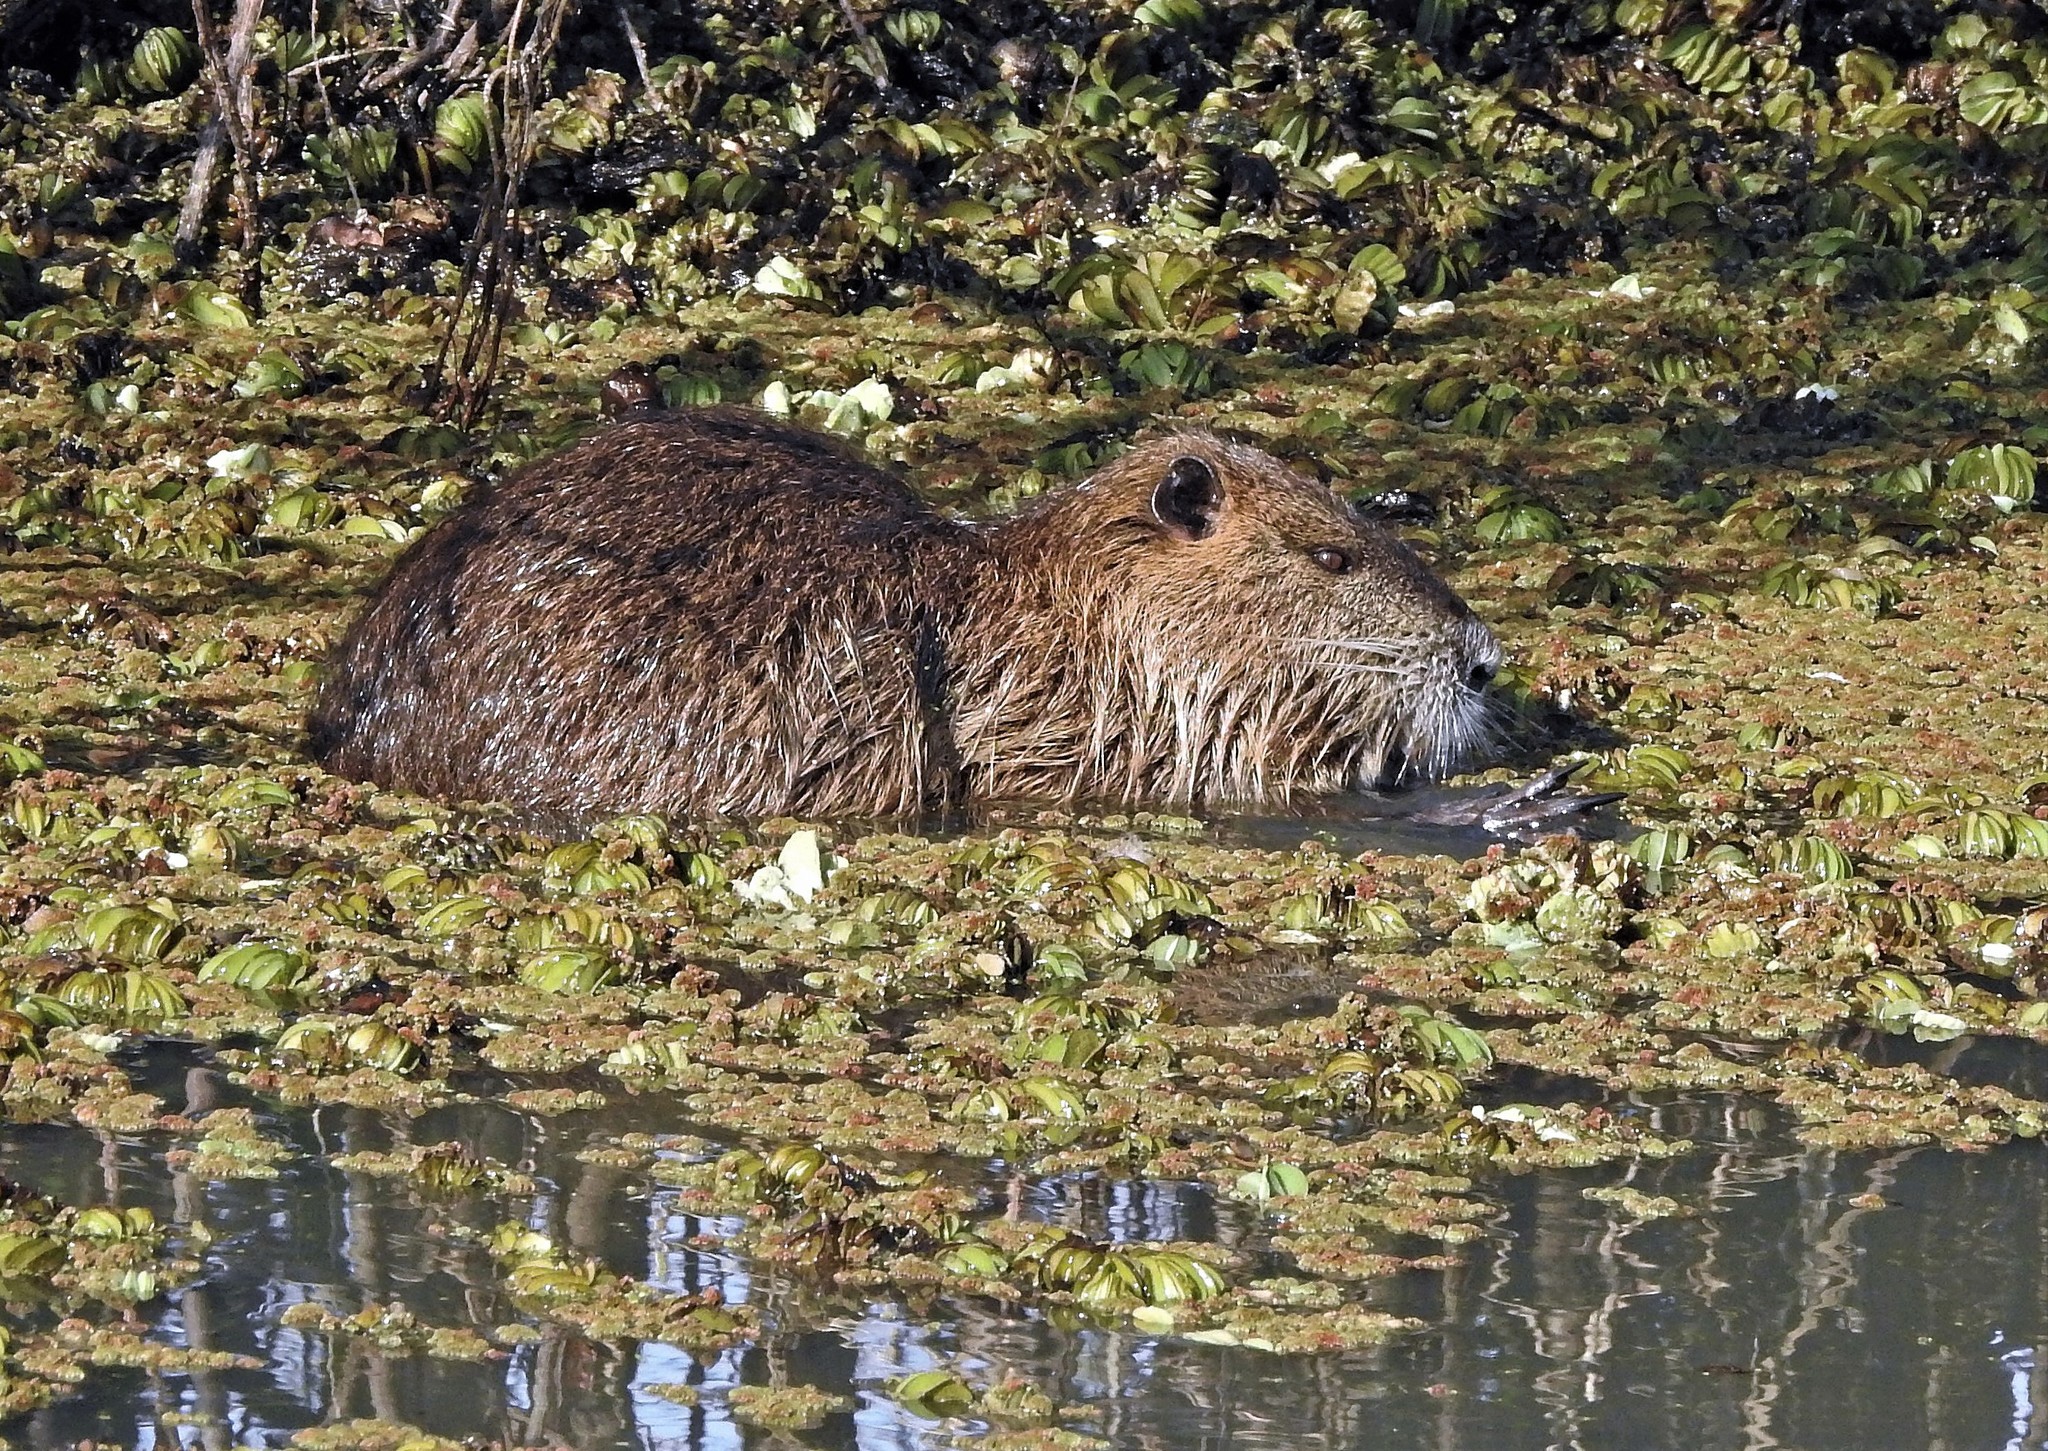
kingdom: Animalia
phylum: Chordata
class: Mammalia
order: Rodentia
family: Myocastoridae
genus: Myocastor
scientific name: Myocastor coypus
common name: Coypu
